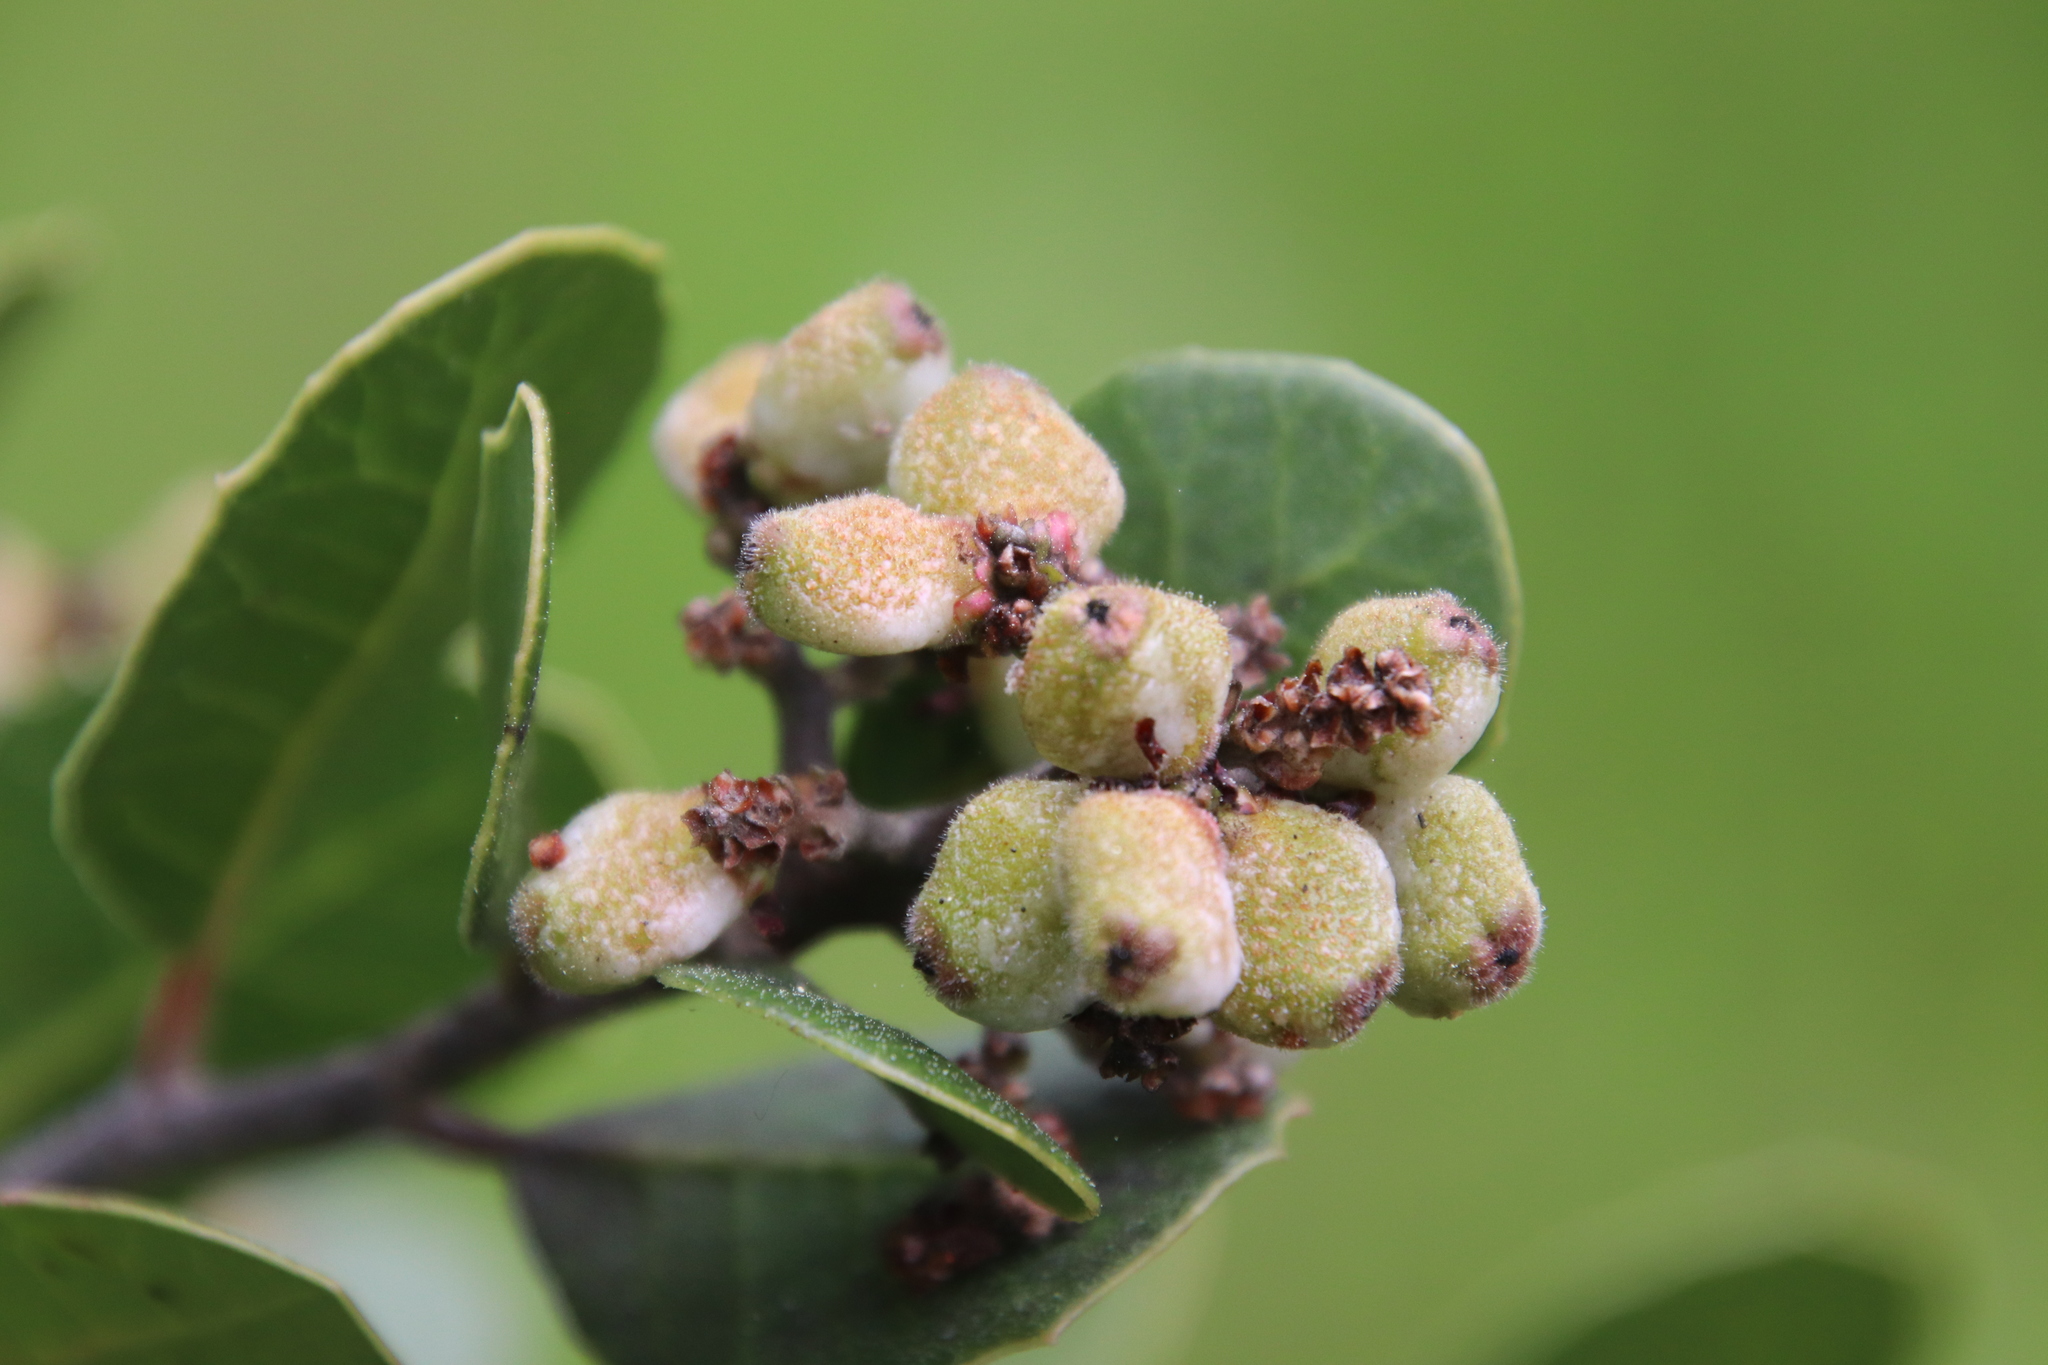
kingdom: Plantae
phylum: Tracheophyta
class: Magnoliopsida
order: Sapindales
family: Anacardiaceae
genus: Rhus
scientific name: Rhus integrifolia
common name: Lemonade sumac
